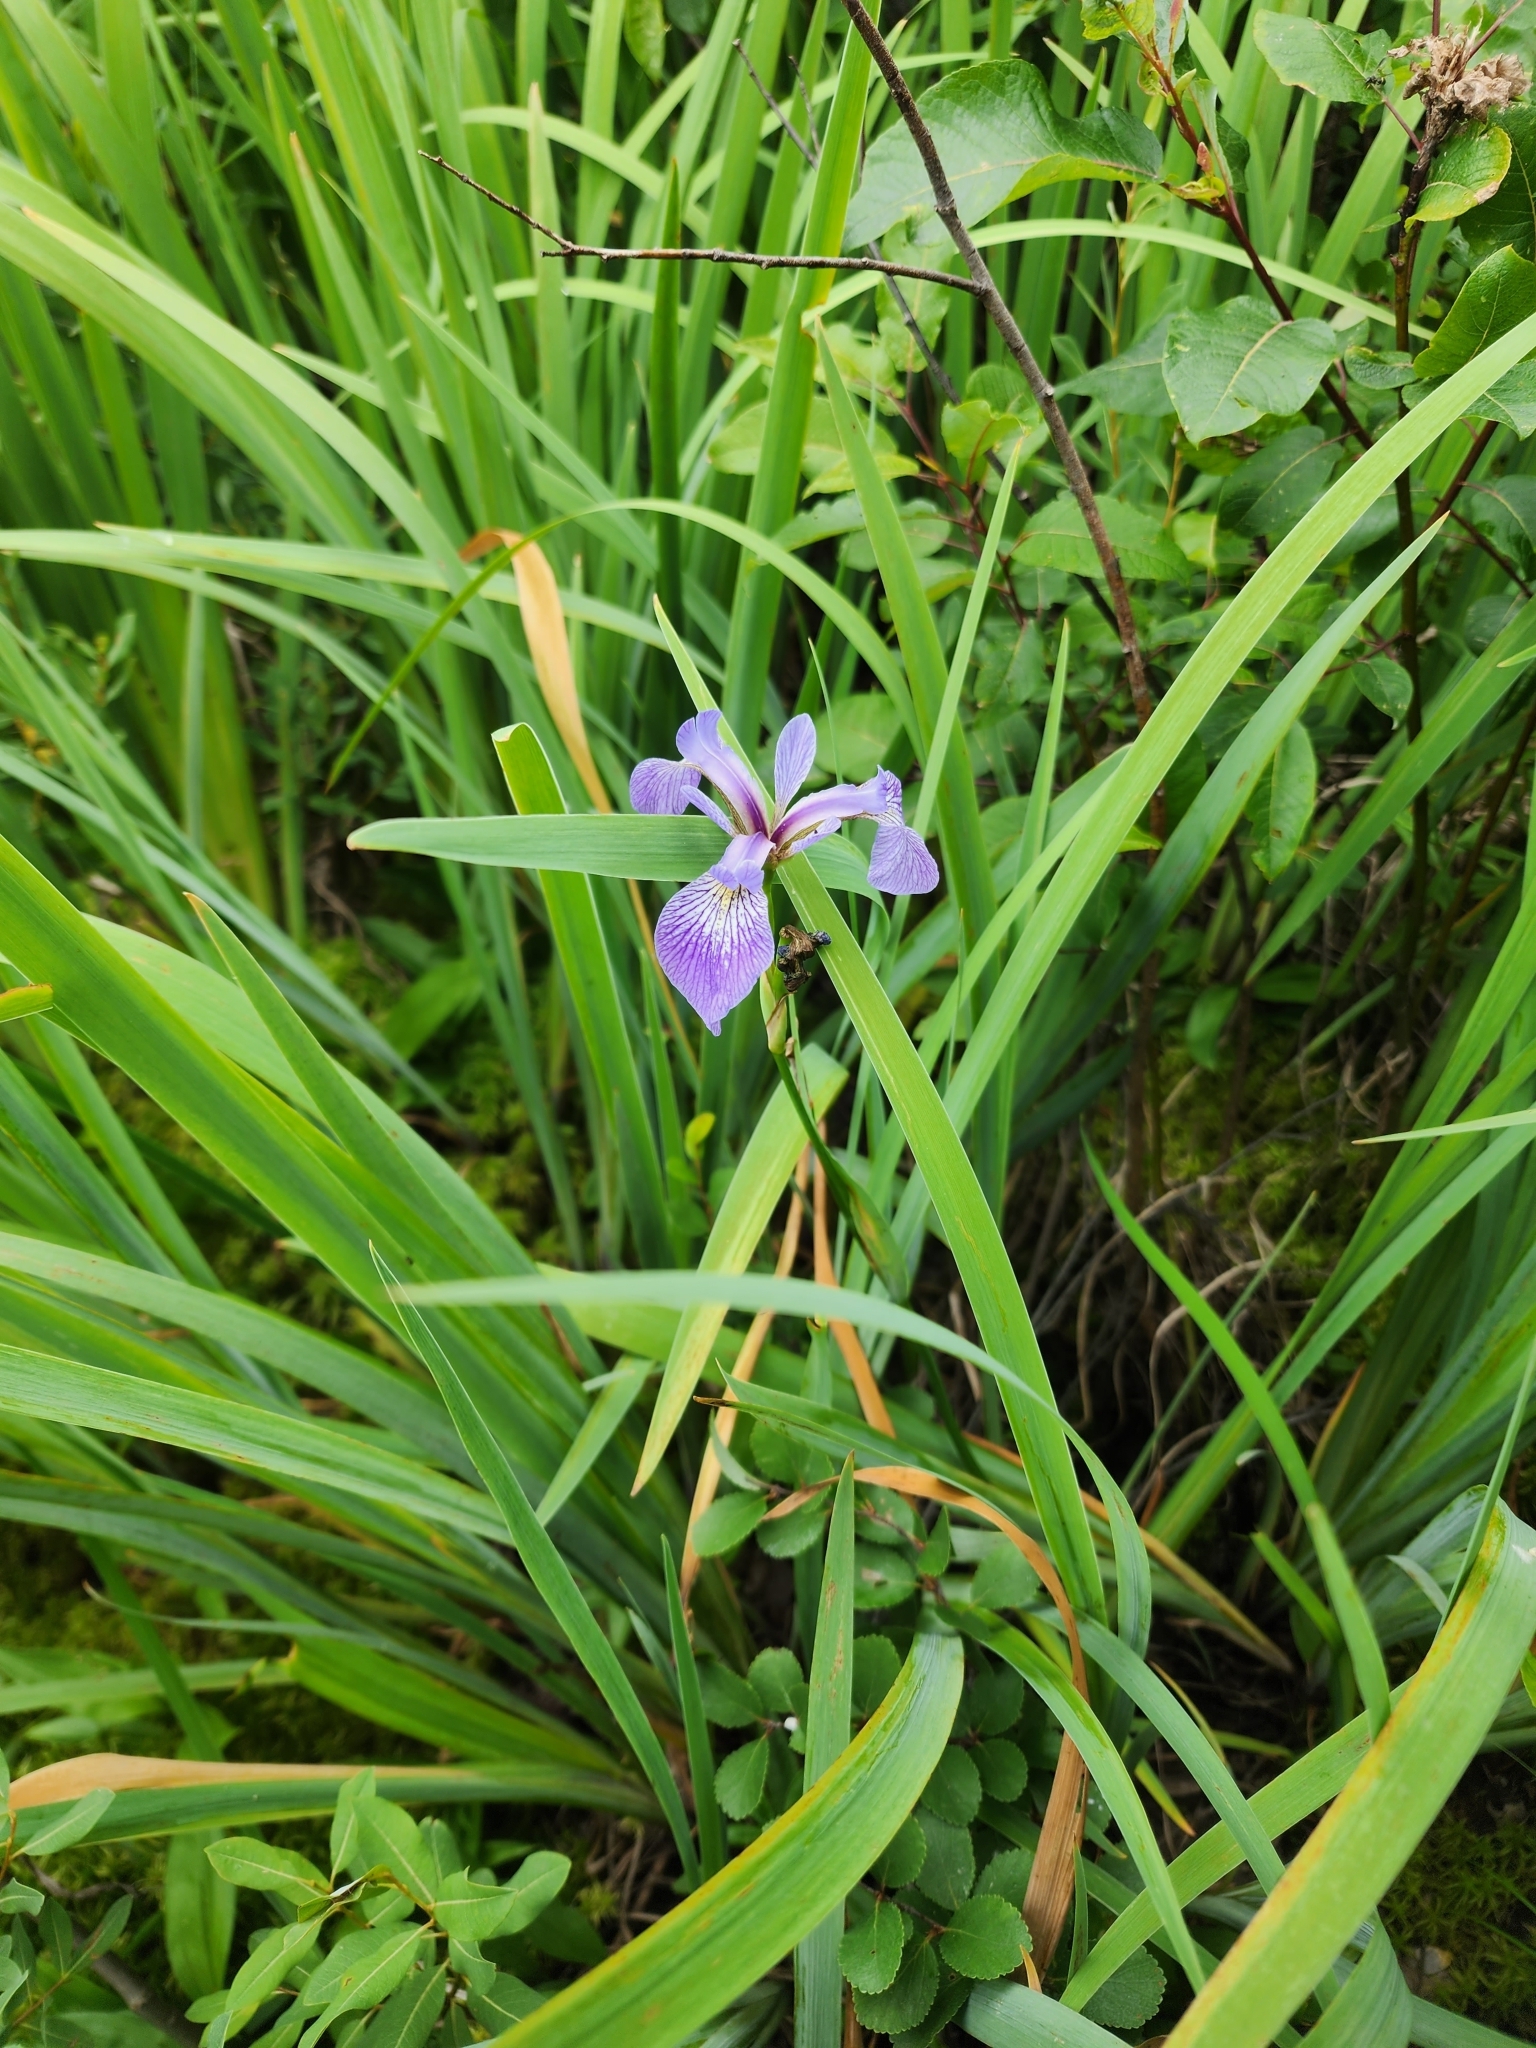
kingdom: Plantae
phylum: Tracheophyta
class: Liliopsida
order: Asparagales
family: Iridaceae
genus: Iris
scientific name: Iris versicolor
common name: Purple iris
